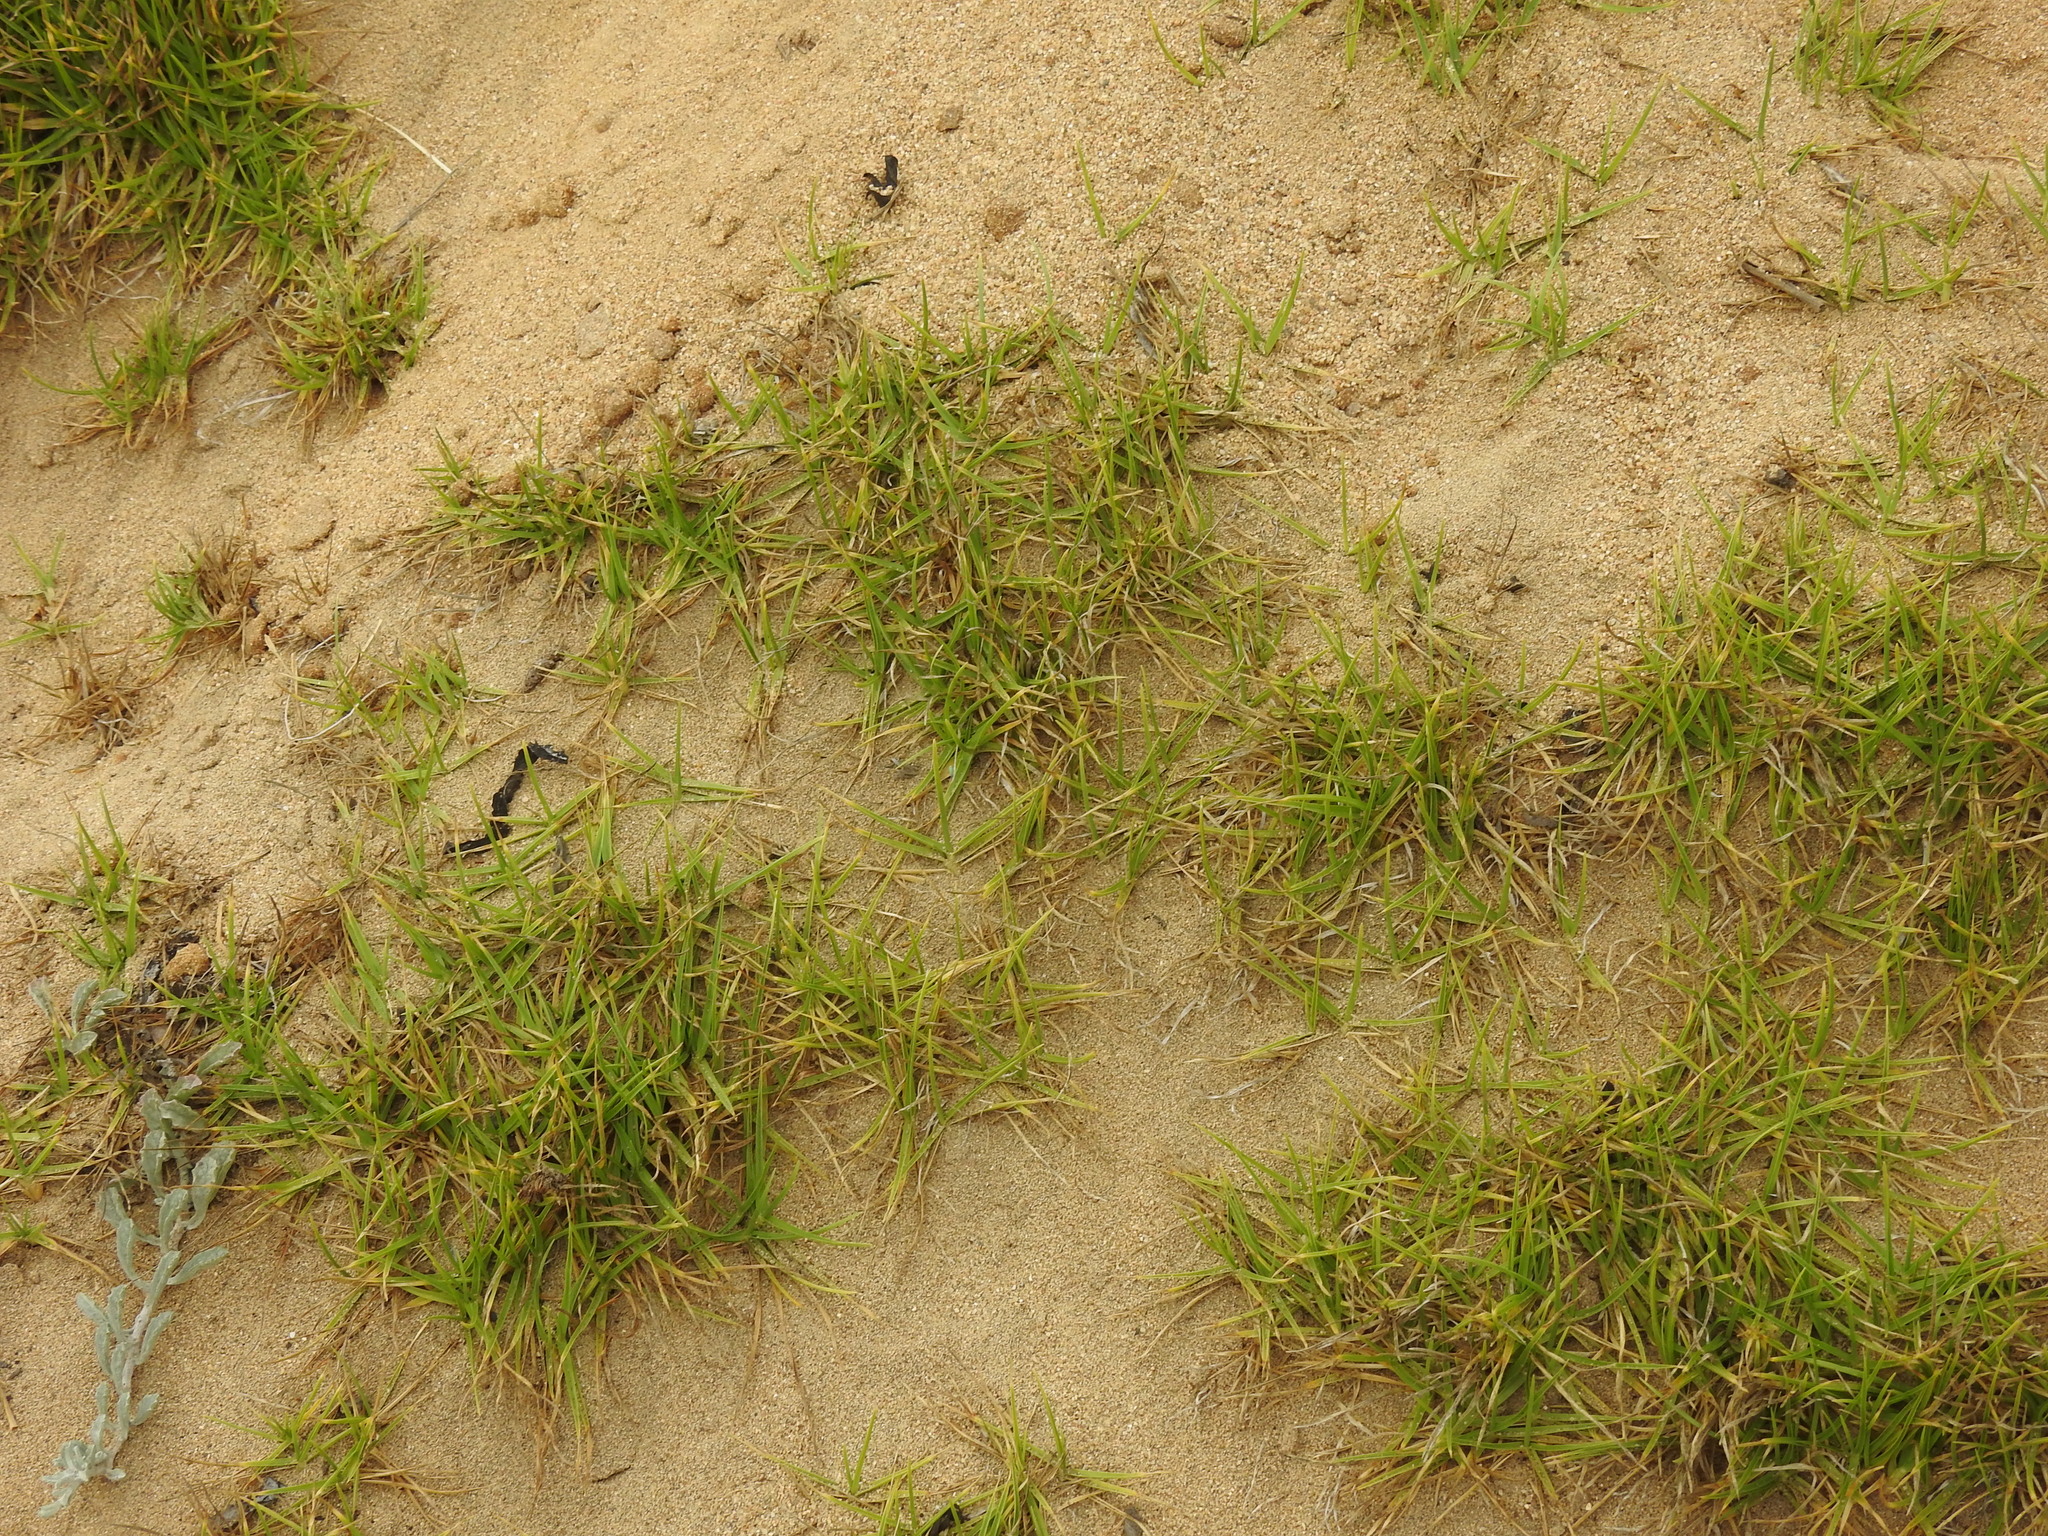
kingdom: Plantae
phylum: Tracheophyta
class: Liliopsida
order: Poales
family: Poaceae
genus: Distichlis
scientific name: Distichlis spicata
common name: Saltgrass
